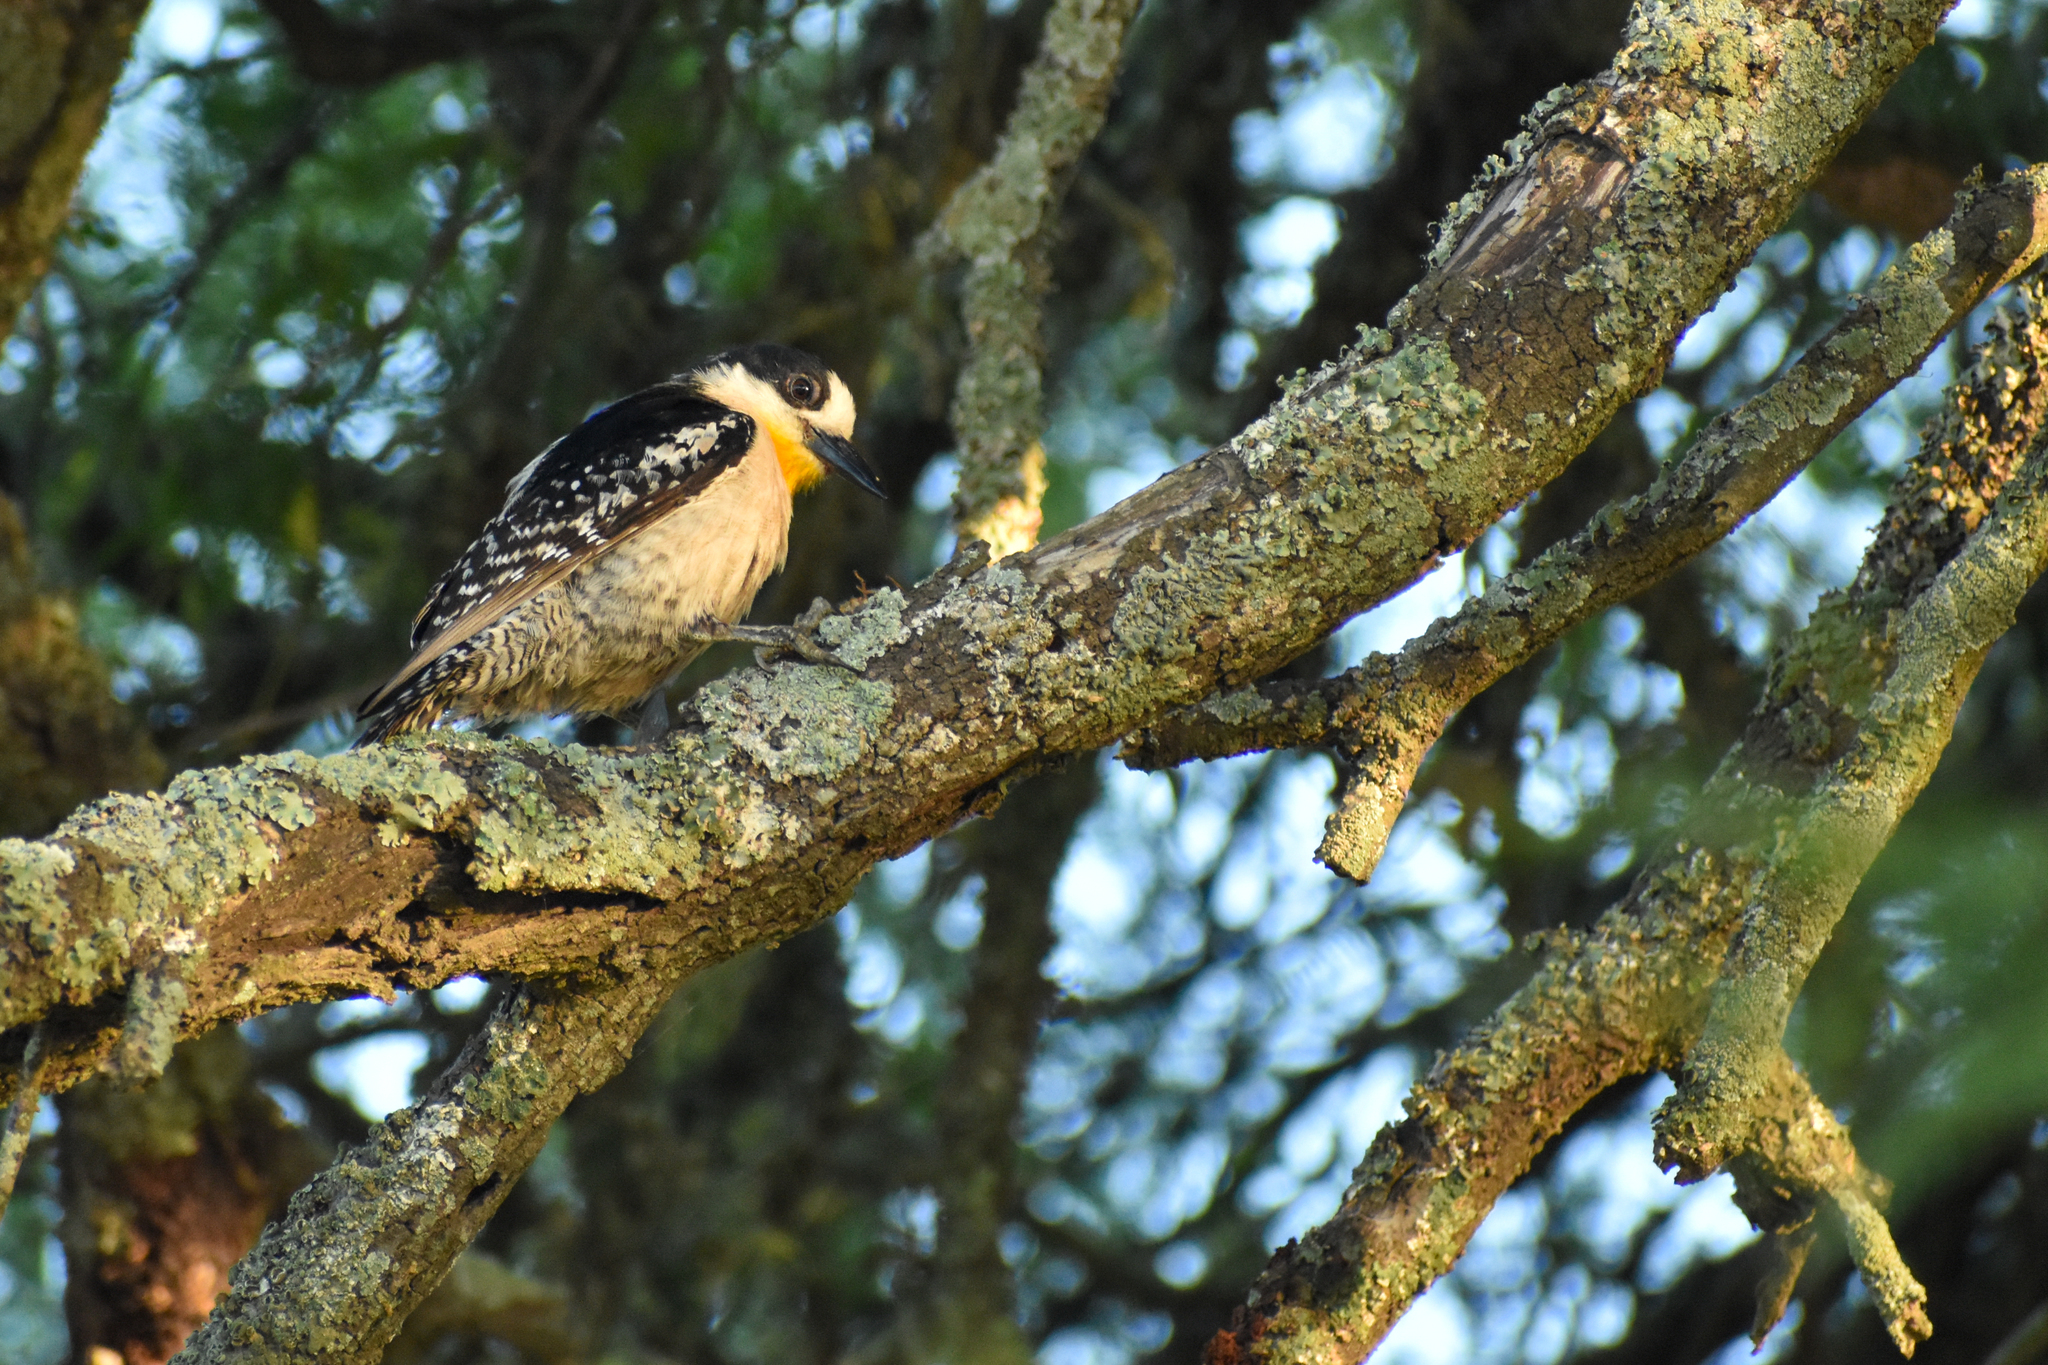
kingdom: Animalia
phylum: Chordata
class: Aves
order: Piciformes
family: Picidae
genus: Melanerpes
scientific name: Melanerpes cactorum
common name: White-fronted woodpecker
